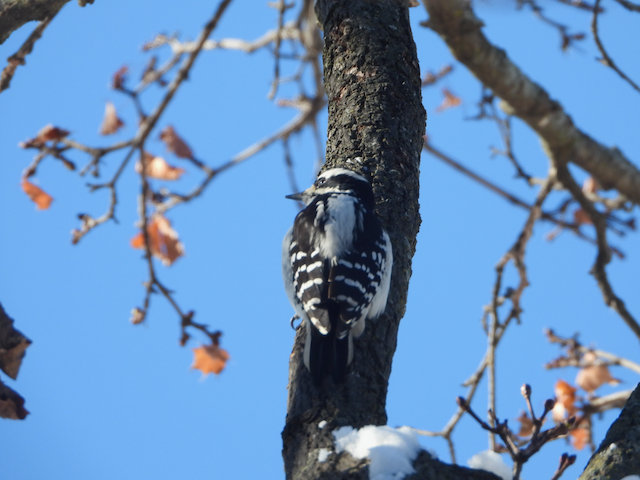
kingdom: Animalia
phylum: Chordata
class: Aves
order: Piciformes
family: Picidae
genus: Dryobates
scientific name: Dryobates pubescens
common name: Downy woodpecker
